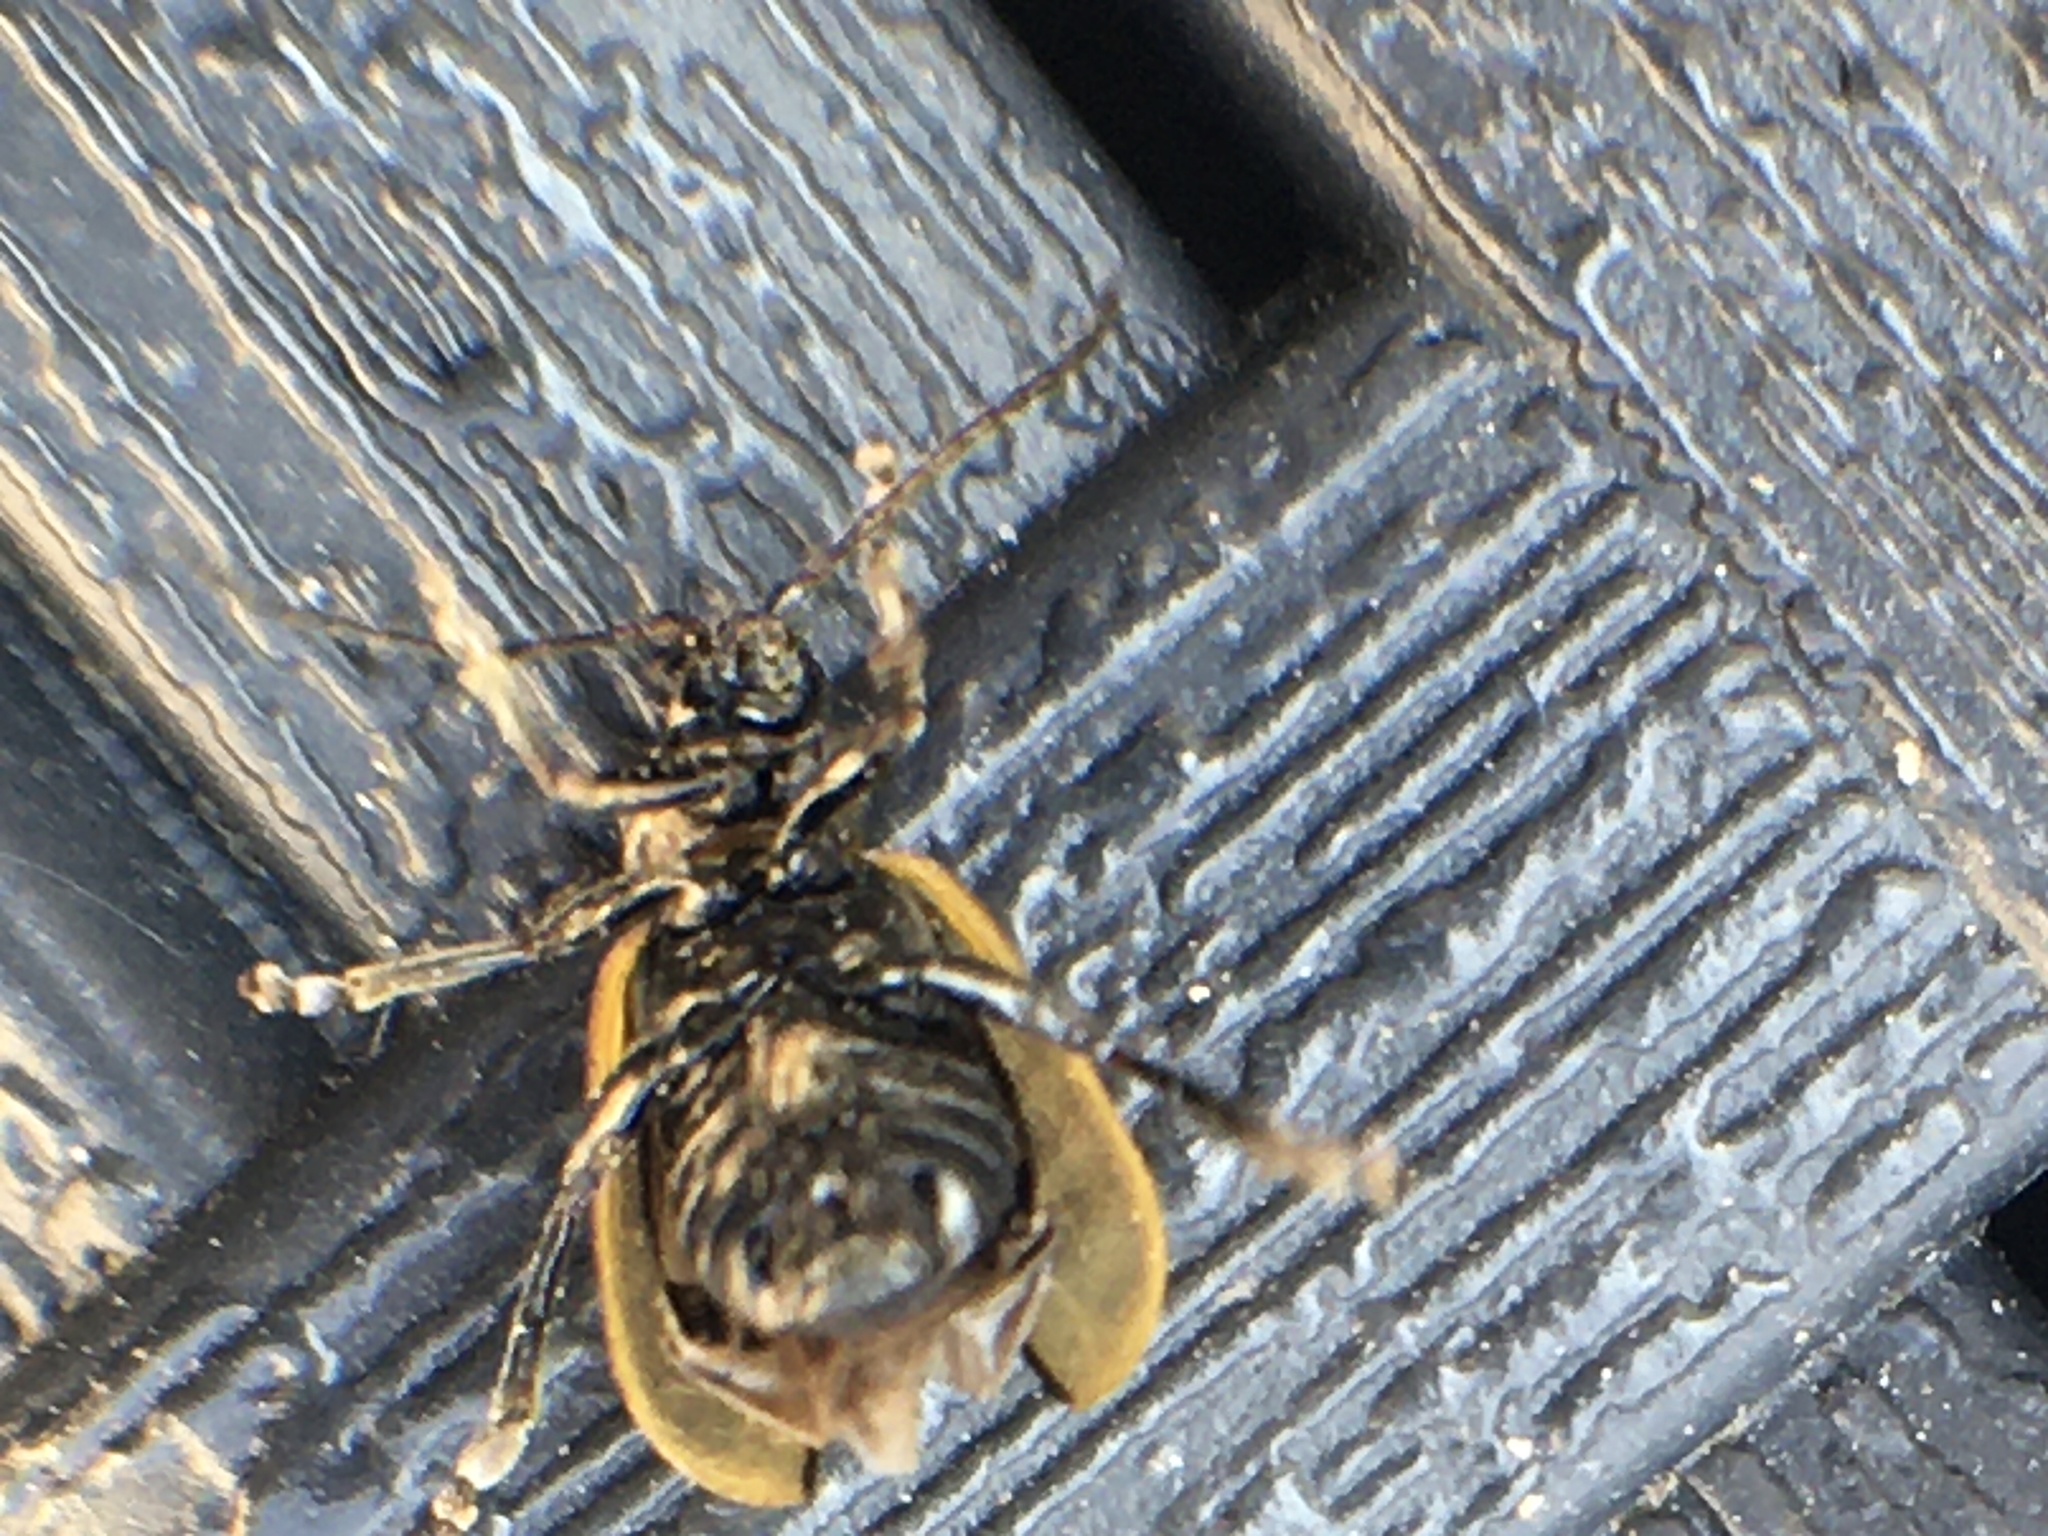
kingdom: Animalia
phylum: Arthropoda
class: Insecta
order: Coleoptera
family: Chrysomelidae
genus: Lochmaea
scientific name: Lochmaea suturalis
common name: Heather beetle
